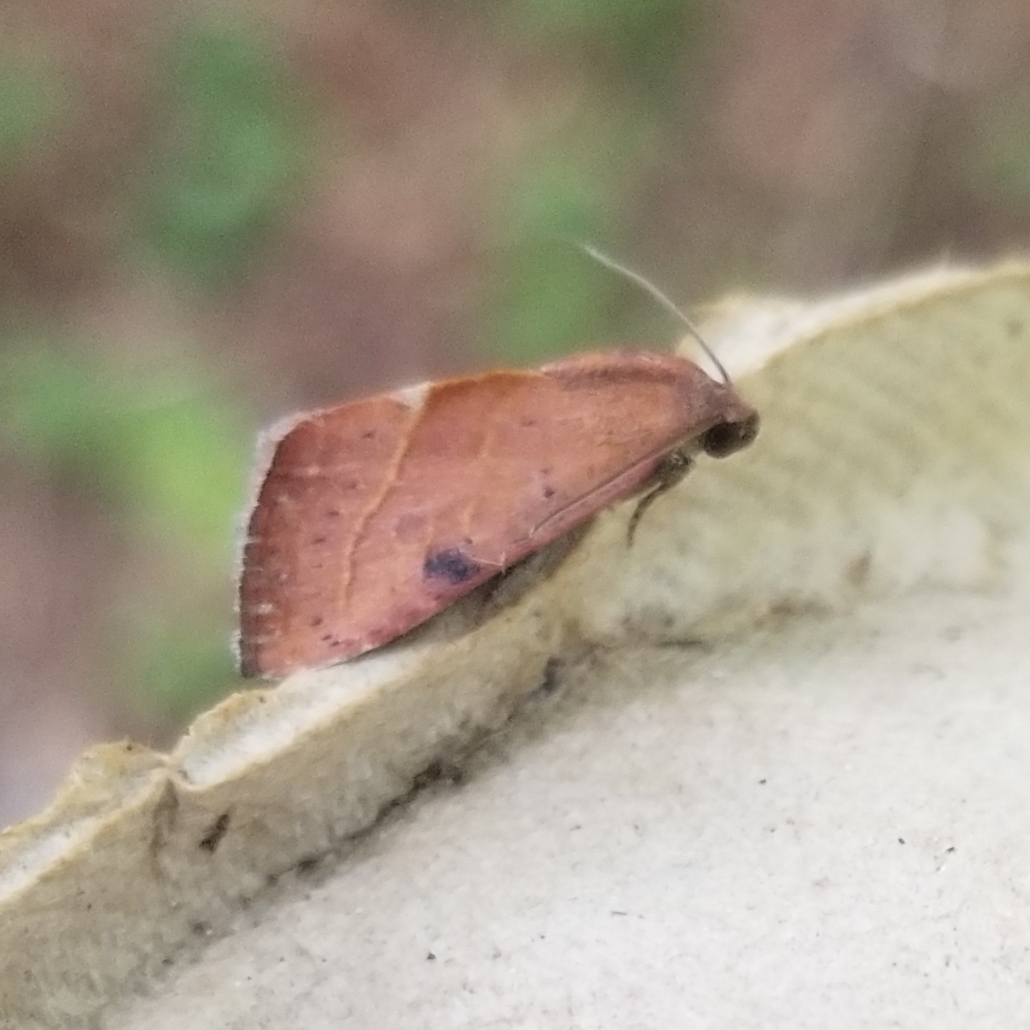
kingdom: Animalia
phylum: Arthropoda
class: Insecta
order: Lepidoptera
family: Noctuidae
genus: Galgula
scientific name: Galgula partita
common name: Wedgeling
